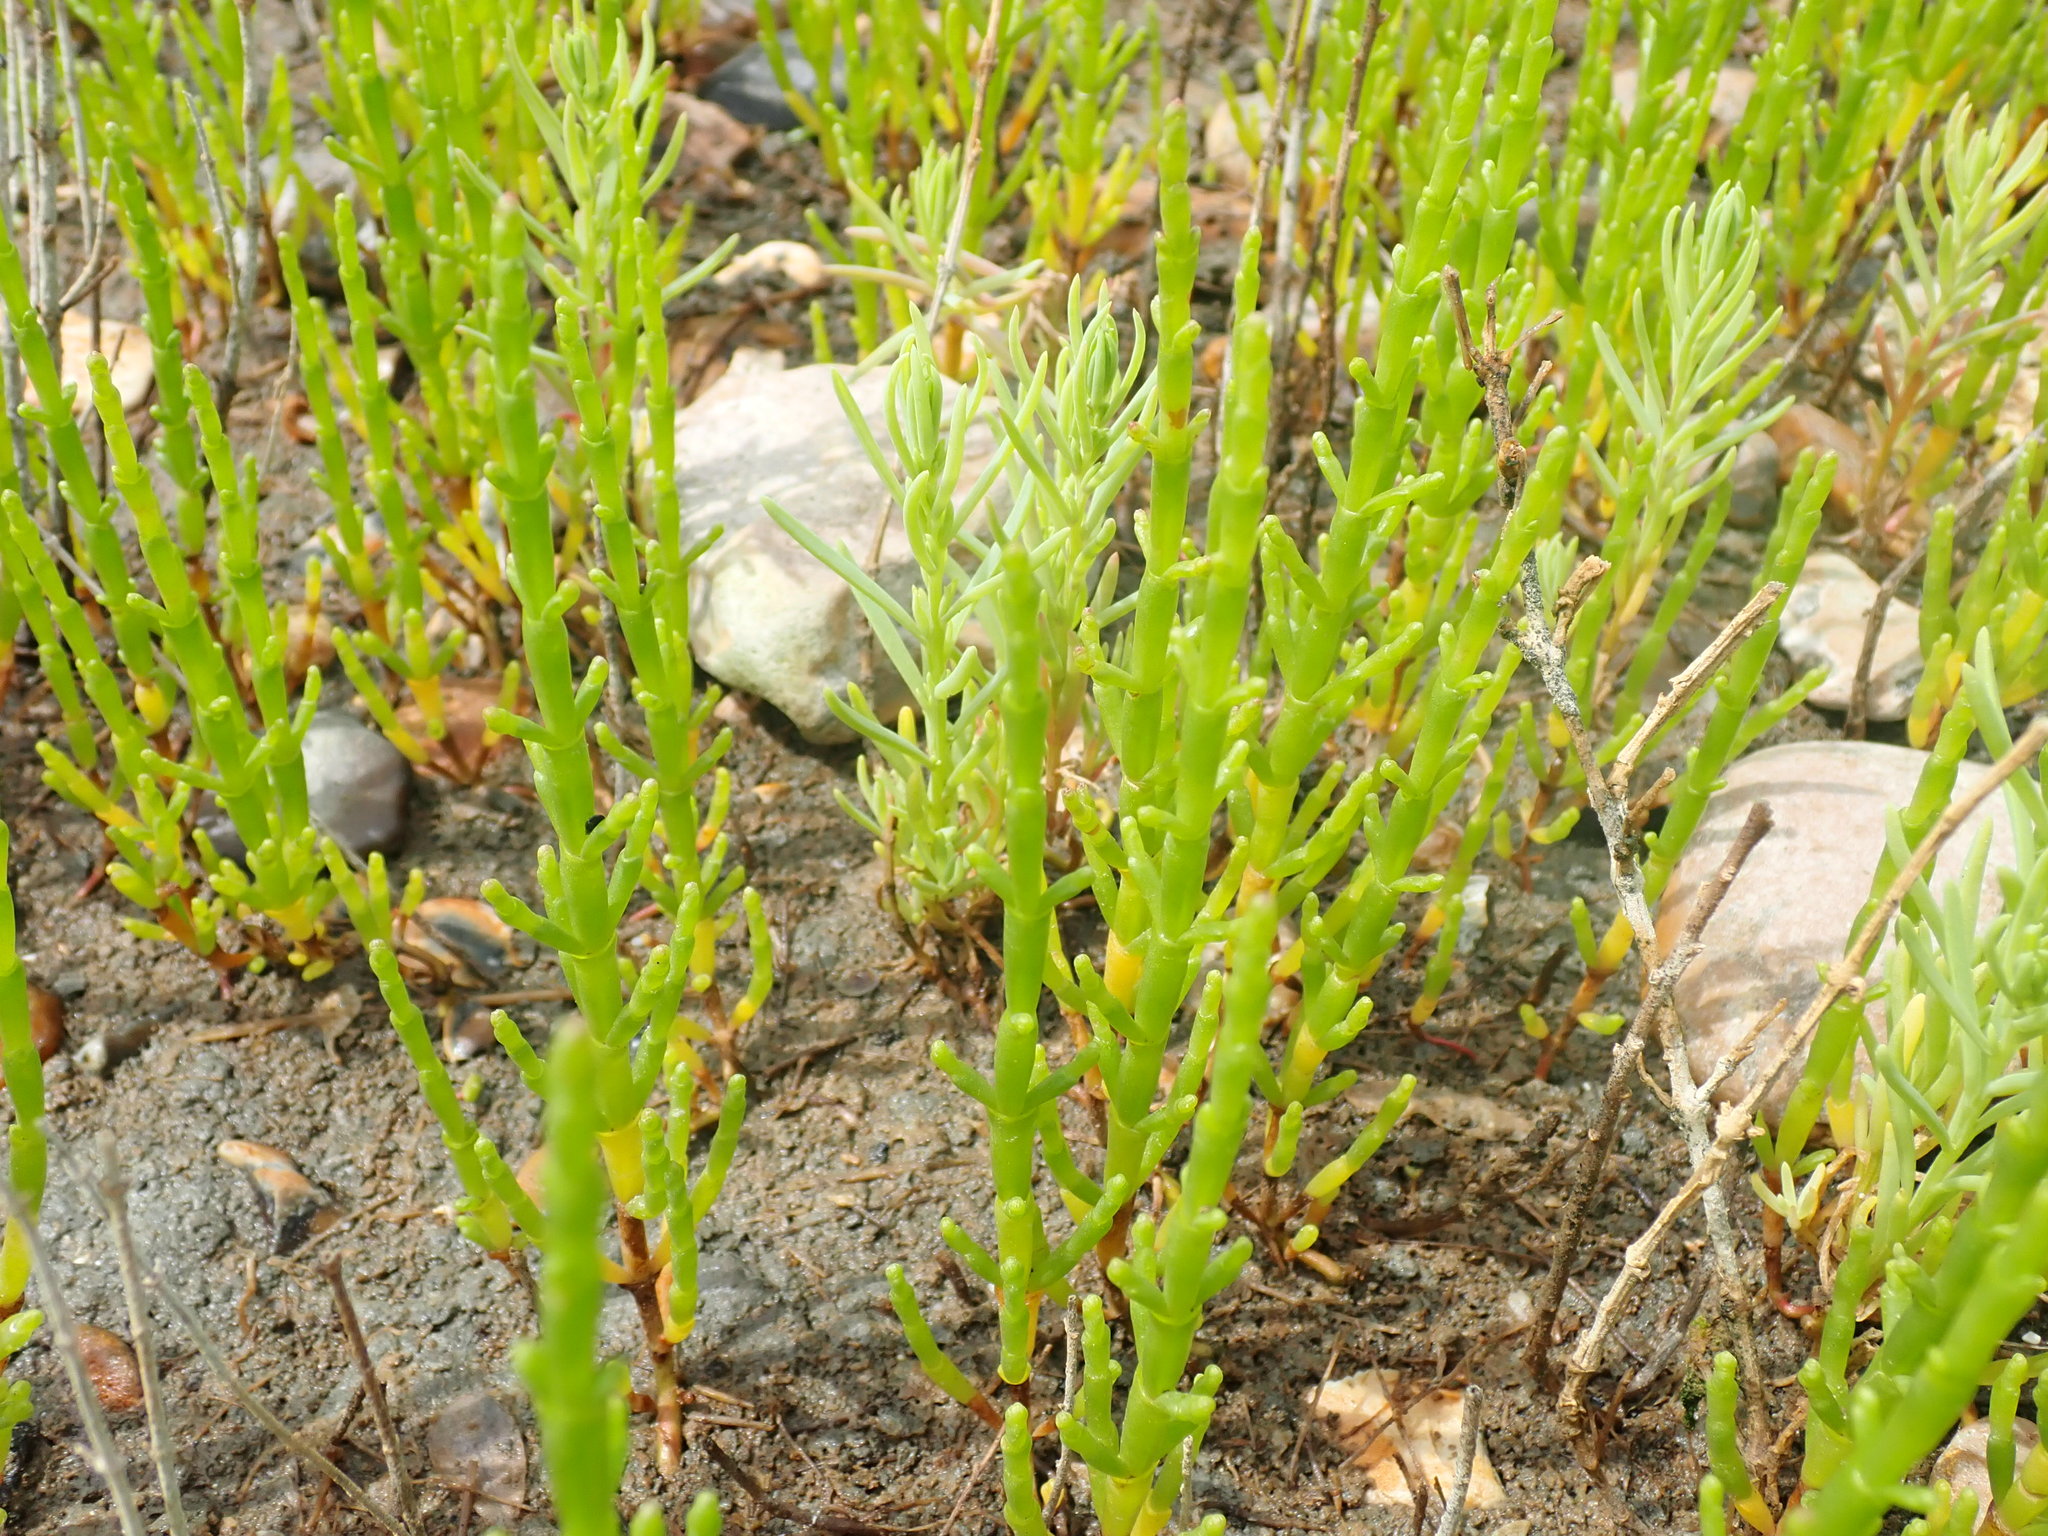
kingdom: Plantae
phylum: Tracheophyta
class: Magnoliopsida
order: Caryophyllales
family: Amaranthaceae
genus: Salicornia
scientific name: Salicornia perennis
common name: Chicken claws
